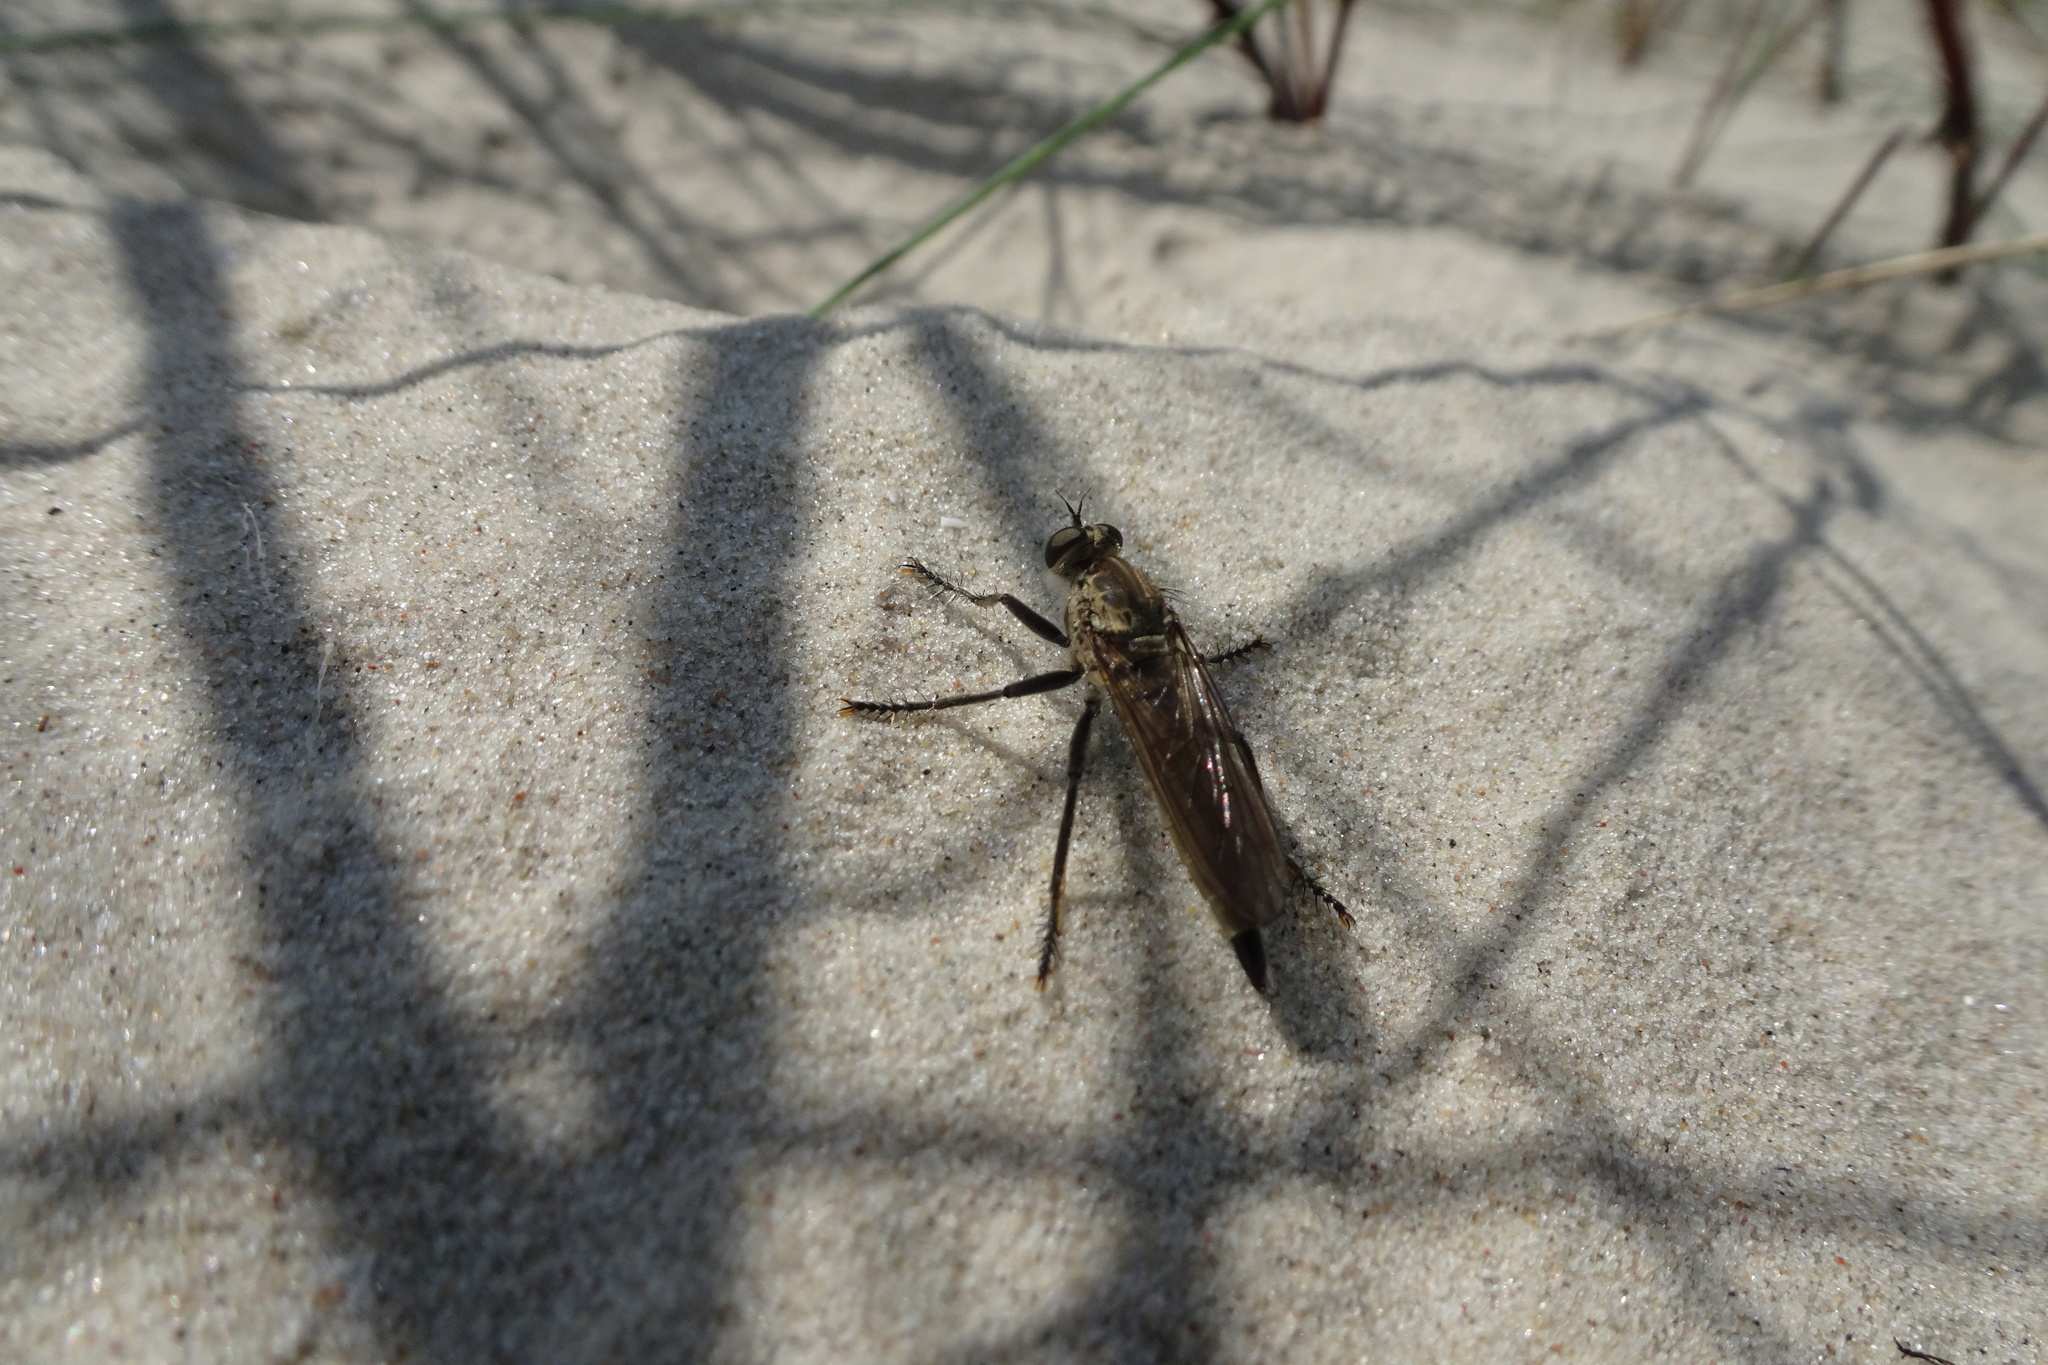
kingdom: Animalia
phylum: Arthropoda
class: Insecta
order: Diptera
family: Asilidae
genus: Philonicus
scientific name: Philonicus albiceps
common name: Dune robberfly
